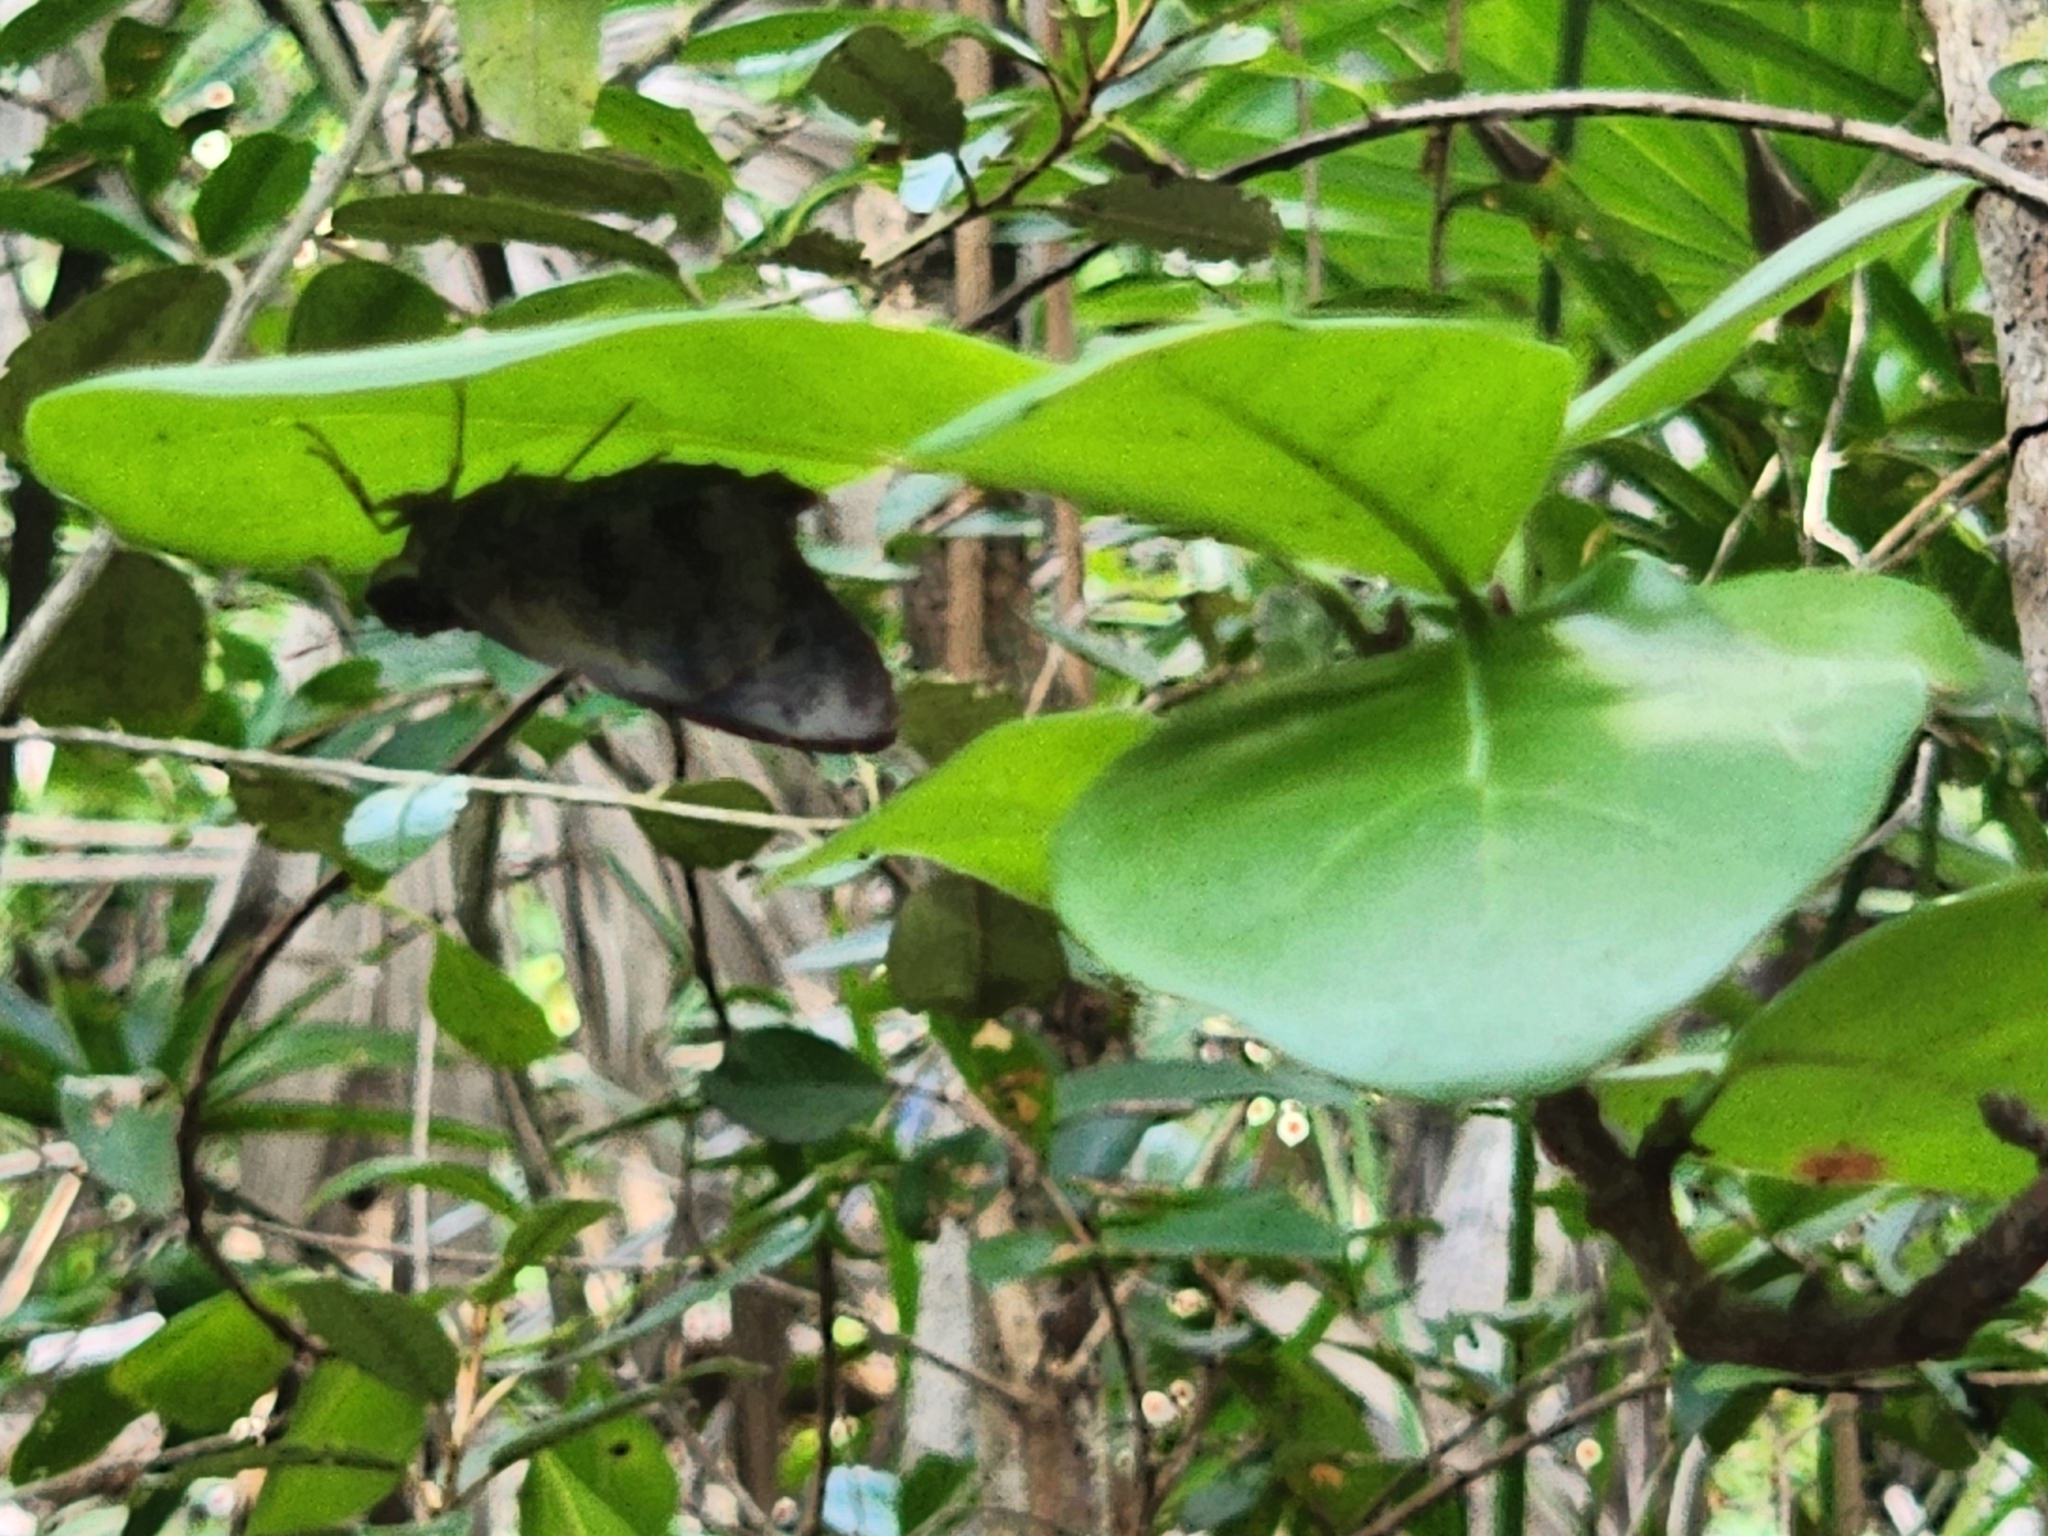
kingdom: Animalia
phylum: Arthropoda
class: Insecta
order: Lepidoptera
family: Hesperiidae
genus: Polygonus
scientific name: Polygonus leo
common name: Hammoch skipper
